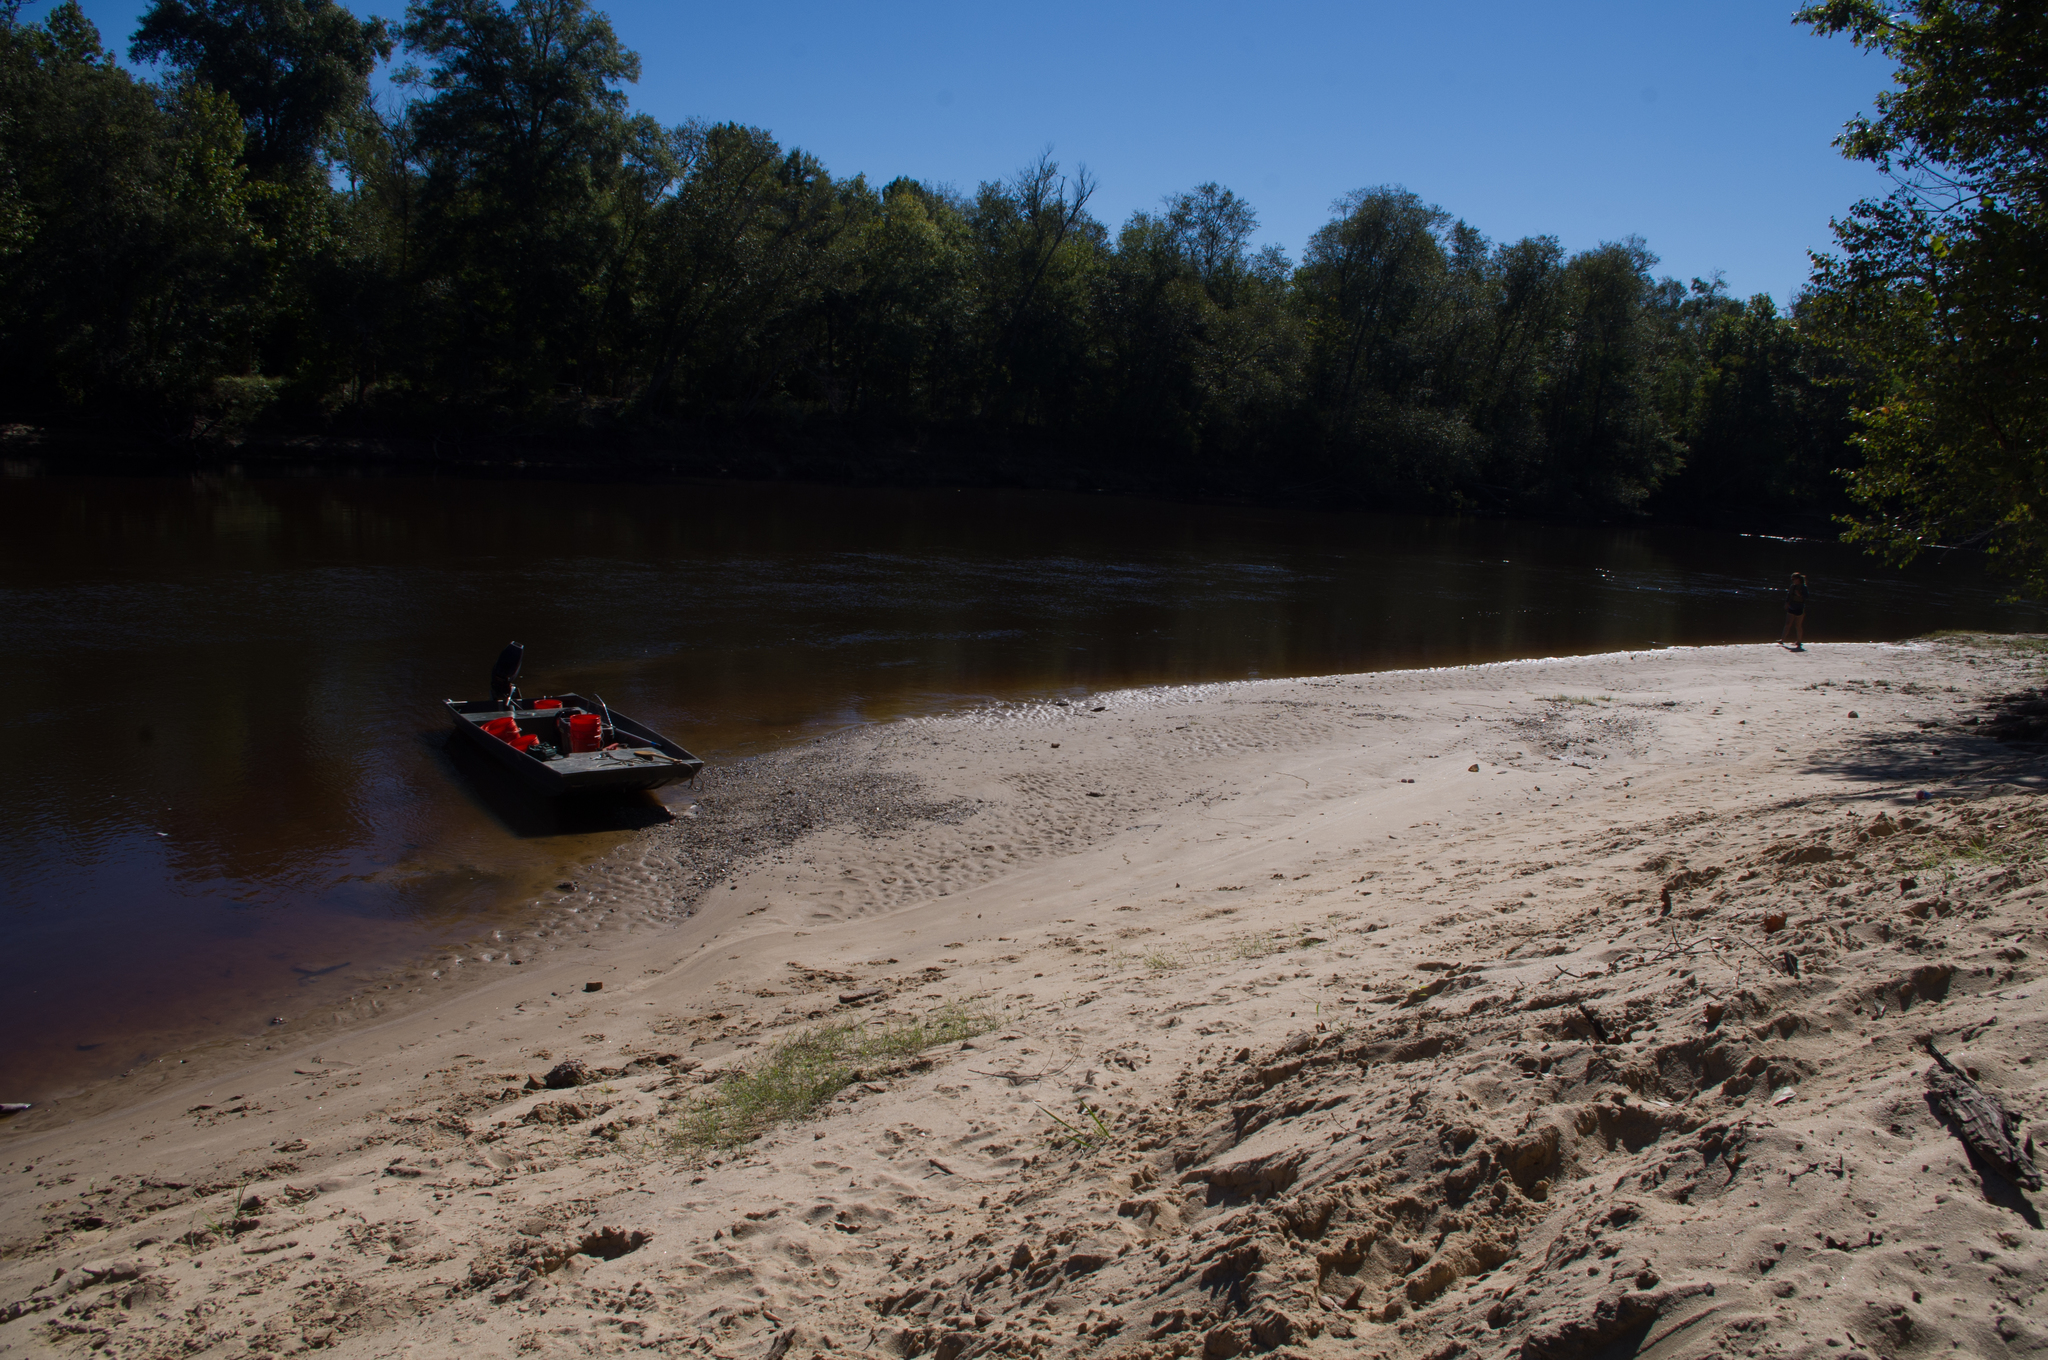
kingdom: Animalia
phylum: Chordata
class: Testudines
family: Trionychidae
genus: Apalone
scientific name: Apalone mutica
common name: Smooth softshell turtle
